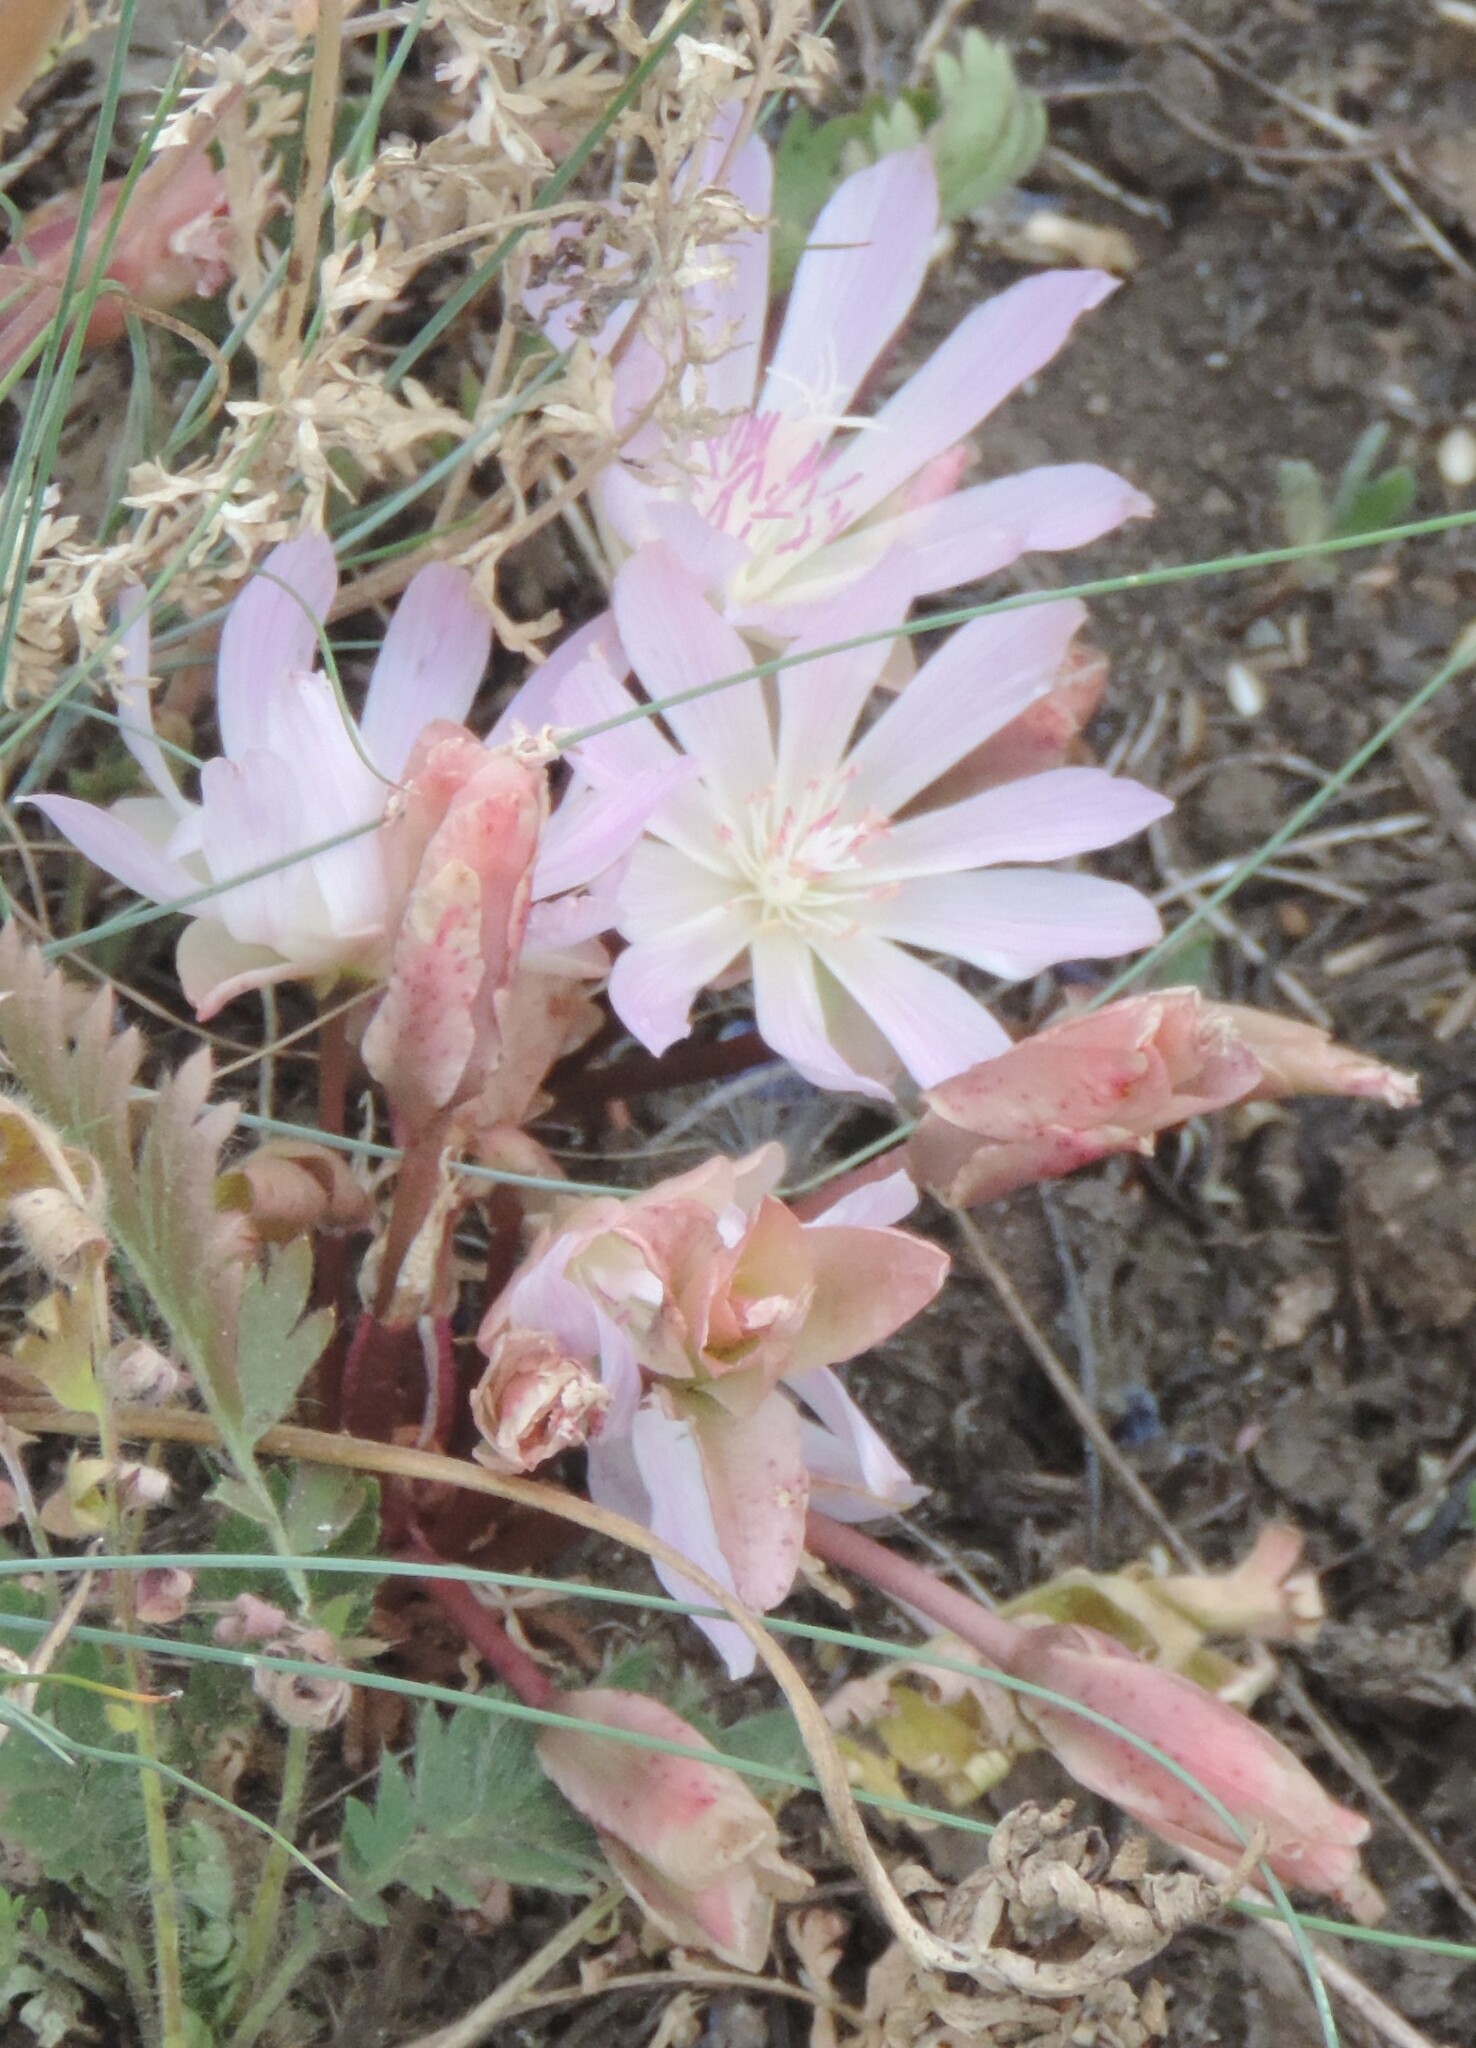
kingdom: Plantae
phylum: Tracheophyta
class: Magnoliopsida
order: Caryophyllales
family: Montiaceae
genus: Lewisia
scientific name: Lewisia rediviva
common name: Bitter-root
